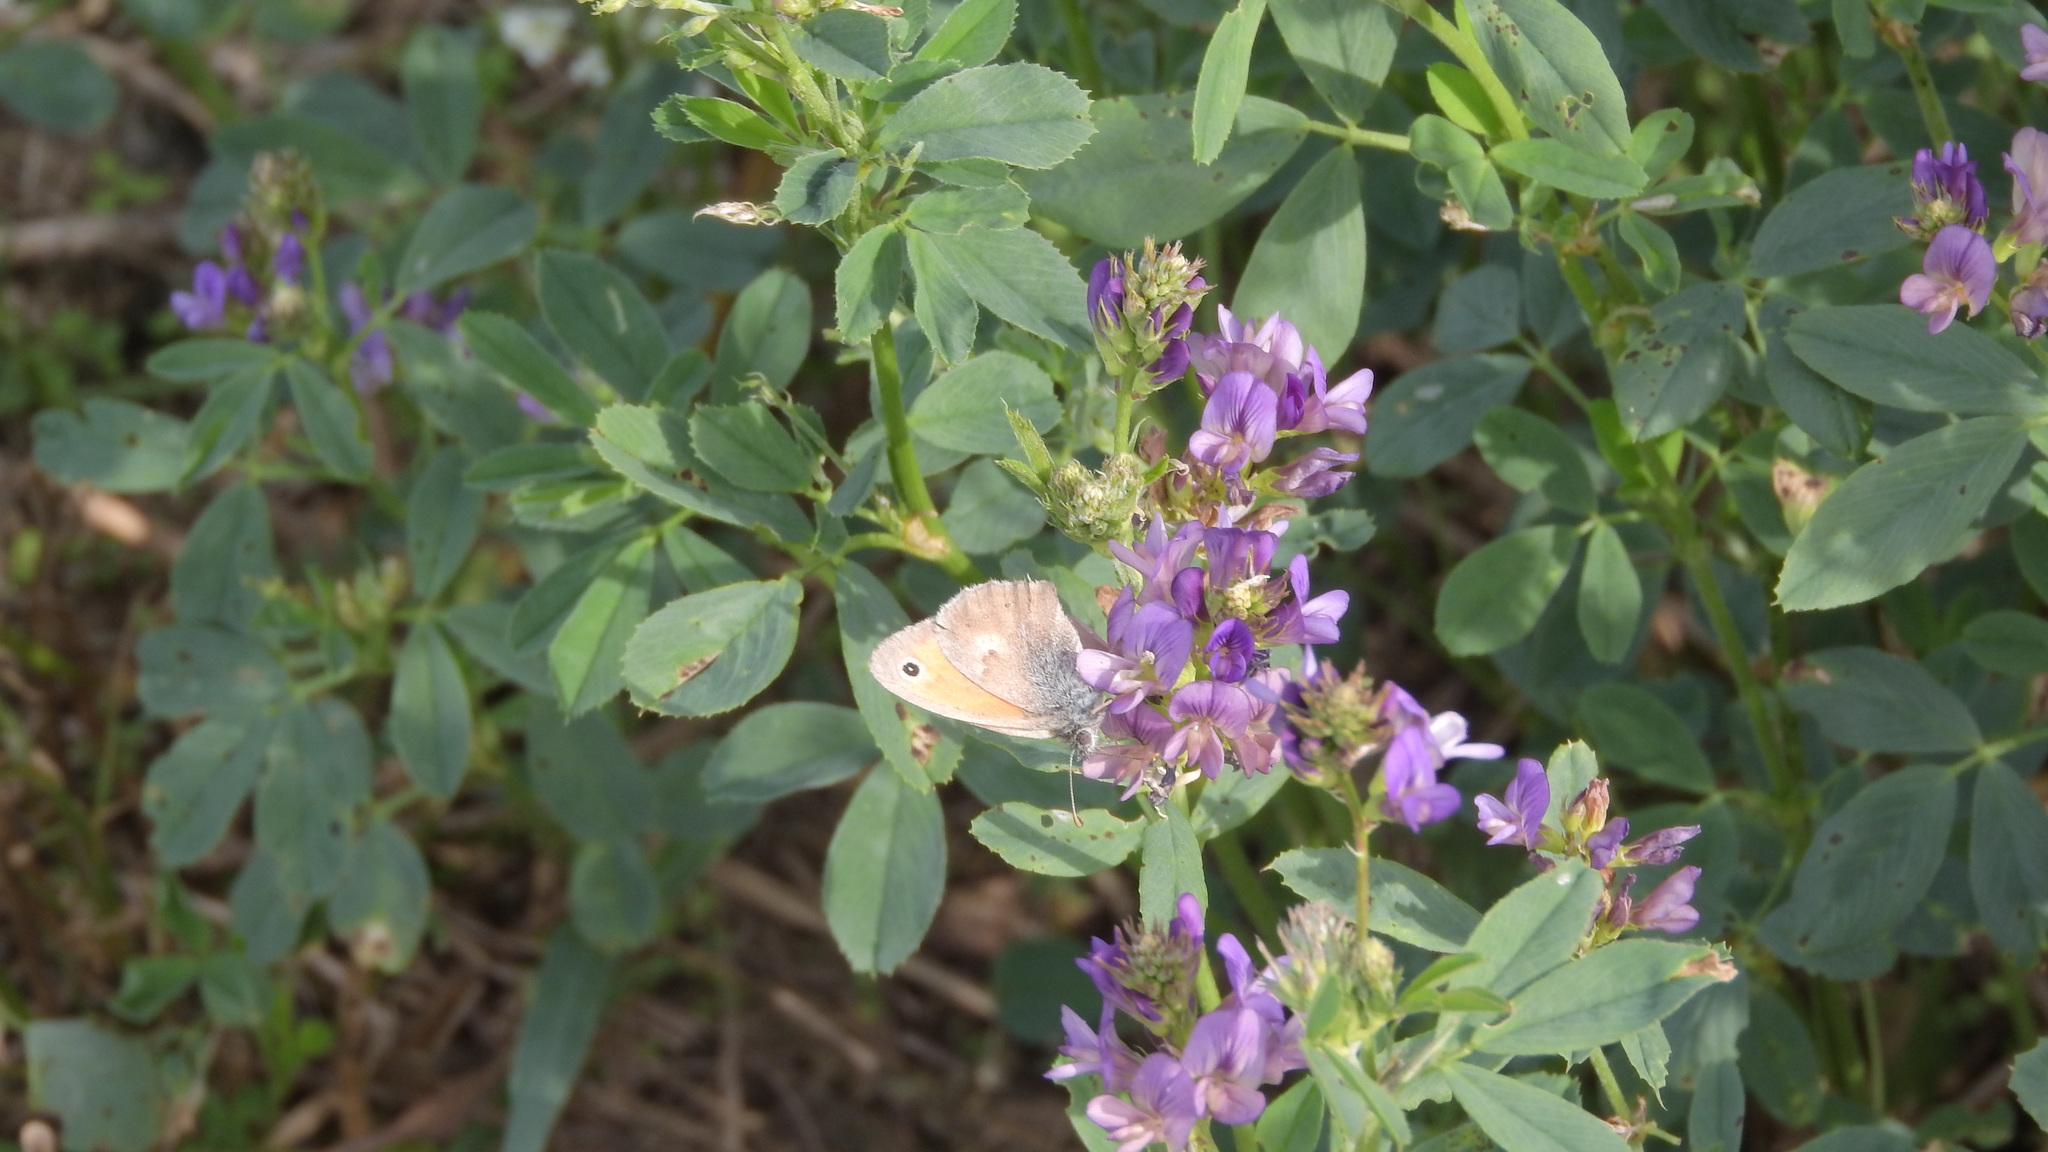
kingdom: Animalia
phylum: Arthropoda
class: Insecta
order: Lepidoptera
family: Nymphalidae
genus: Coenonympha
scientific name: Coenonympha pamphilus
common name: Small heath
